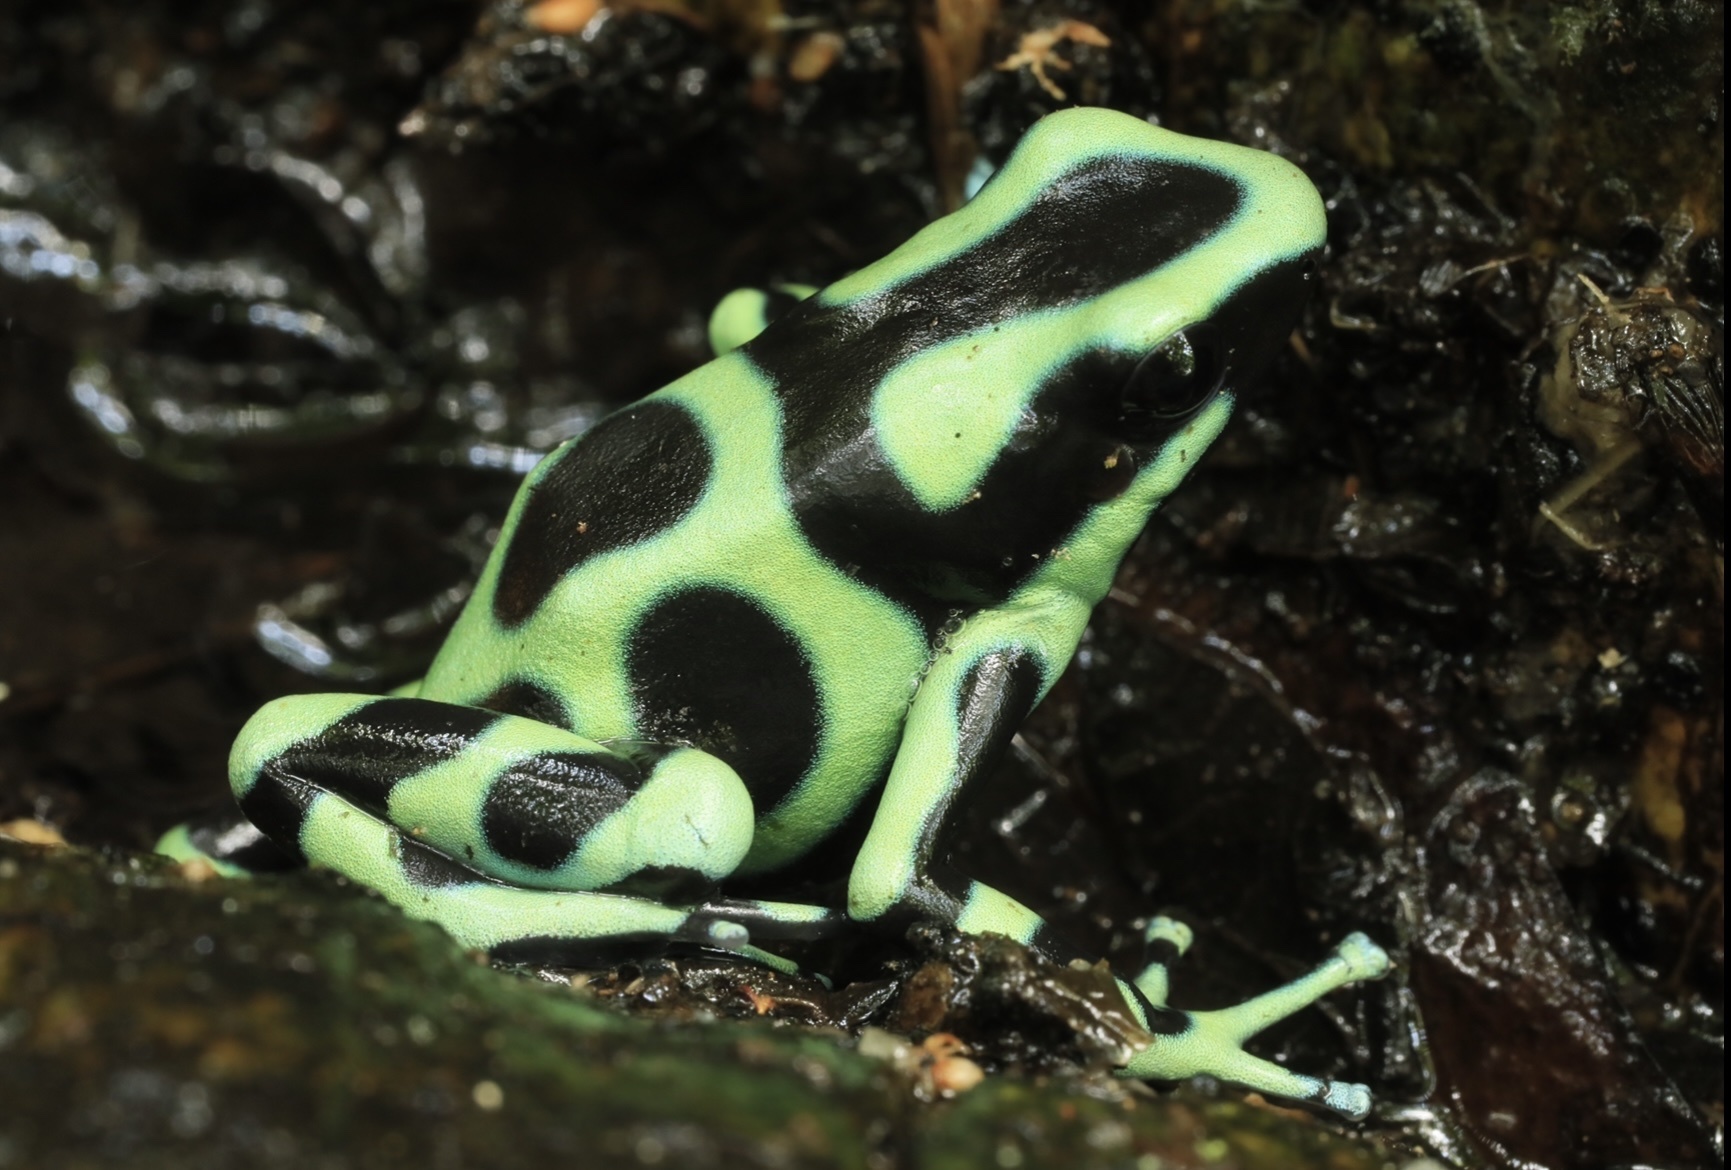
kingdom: Animalia
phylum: Chordata
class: Amphibia
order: Anura
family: Dendrobatidae
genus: Dendrobates
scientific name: Dendrobates auratus
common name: Green and black poison dart frog
